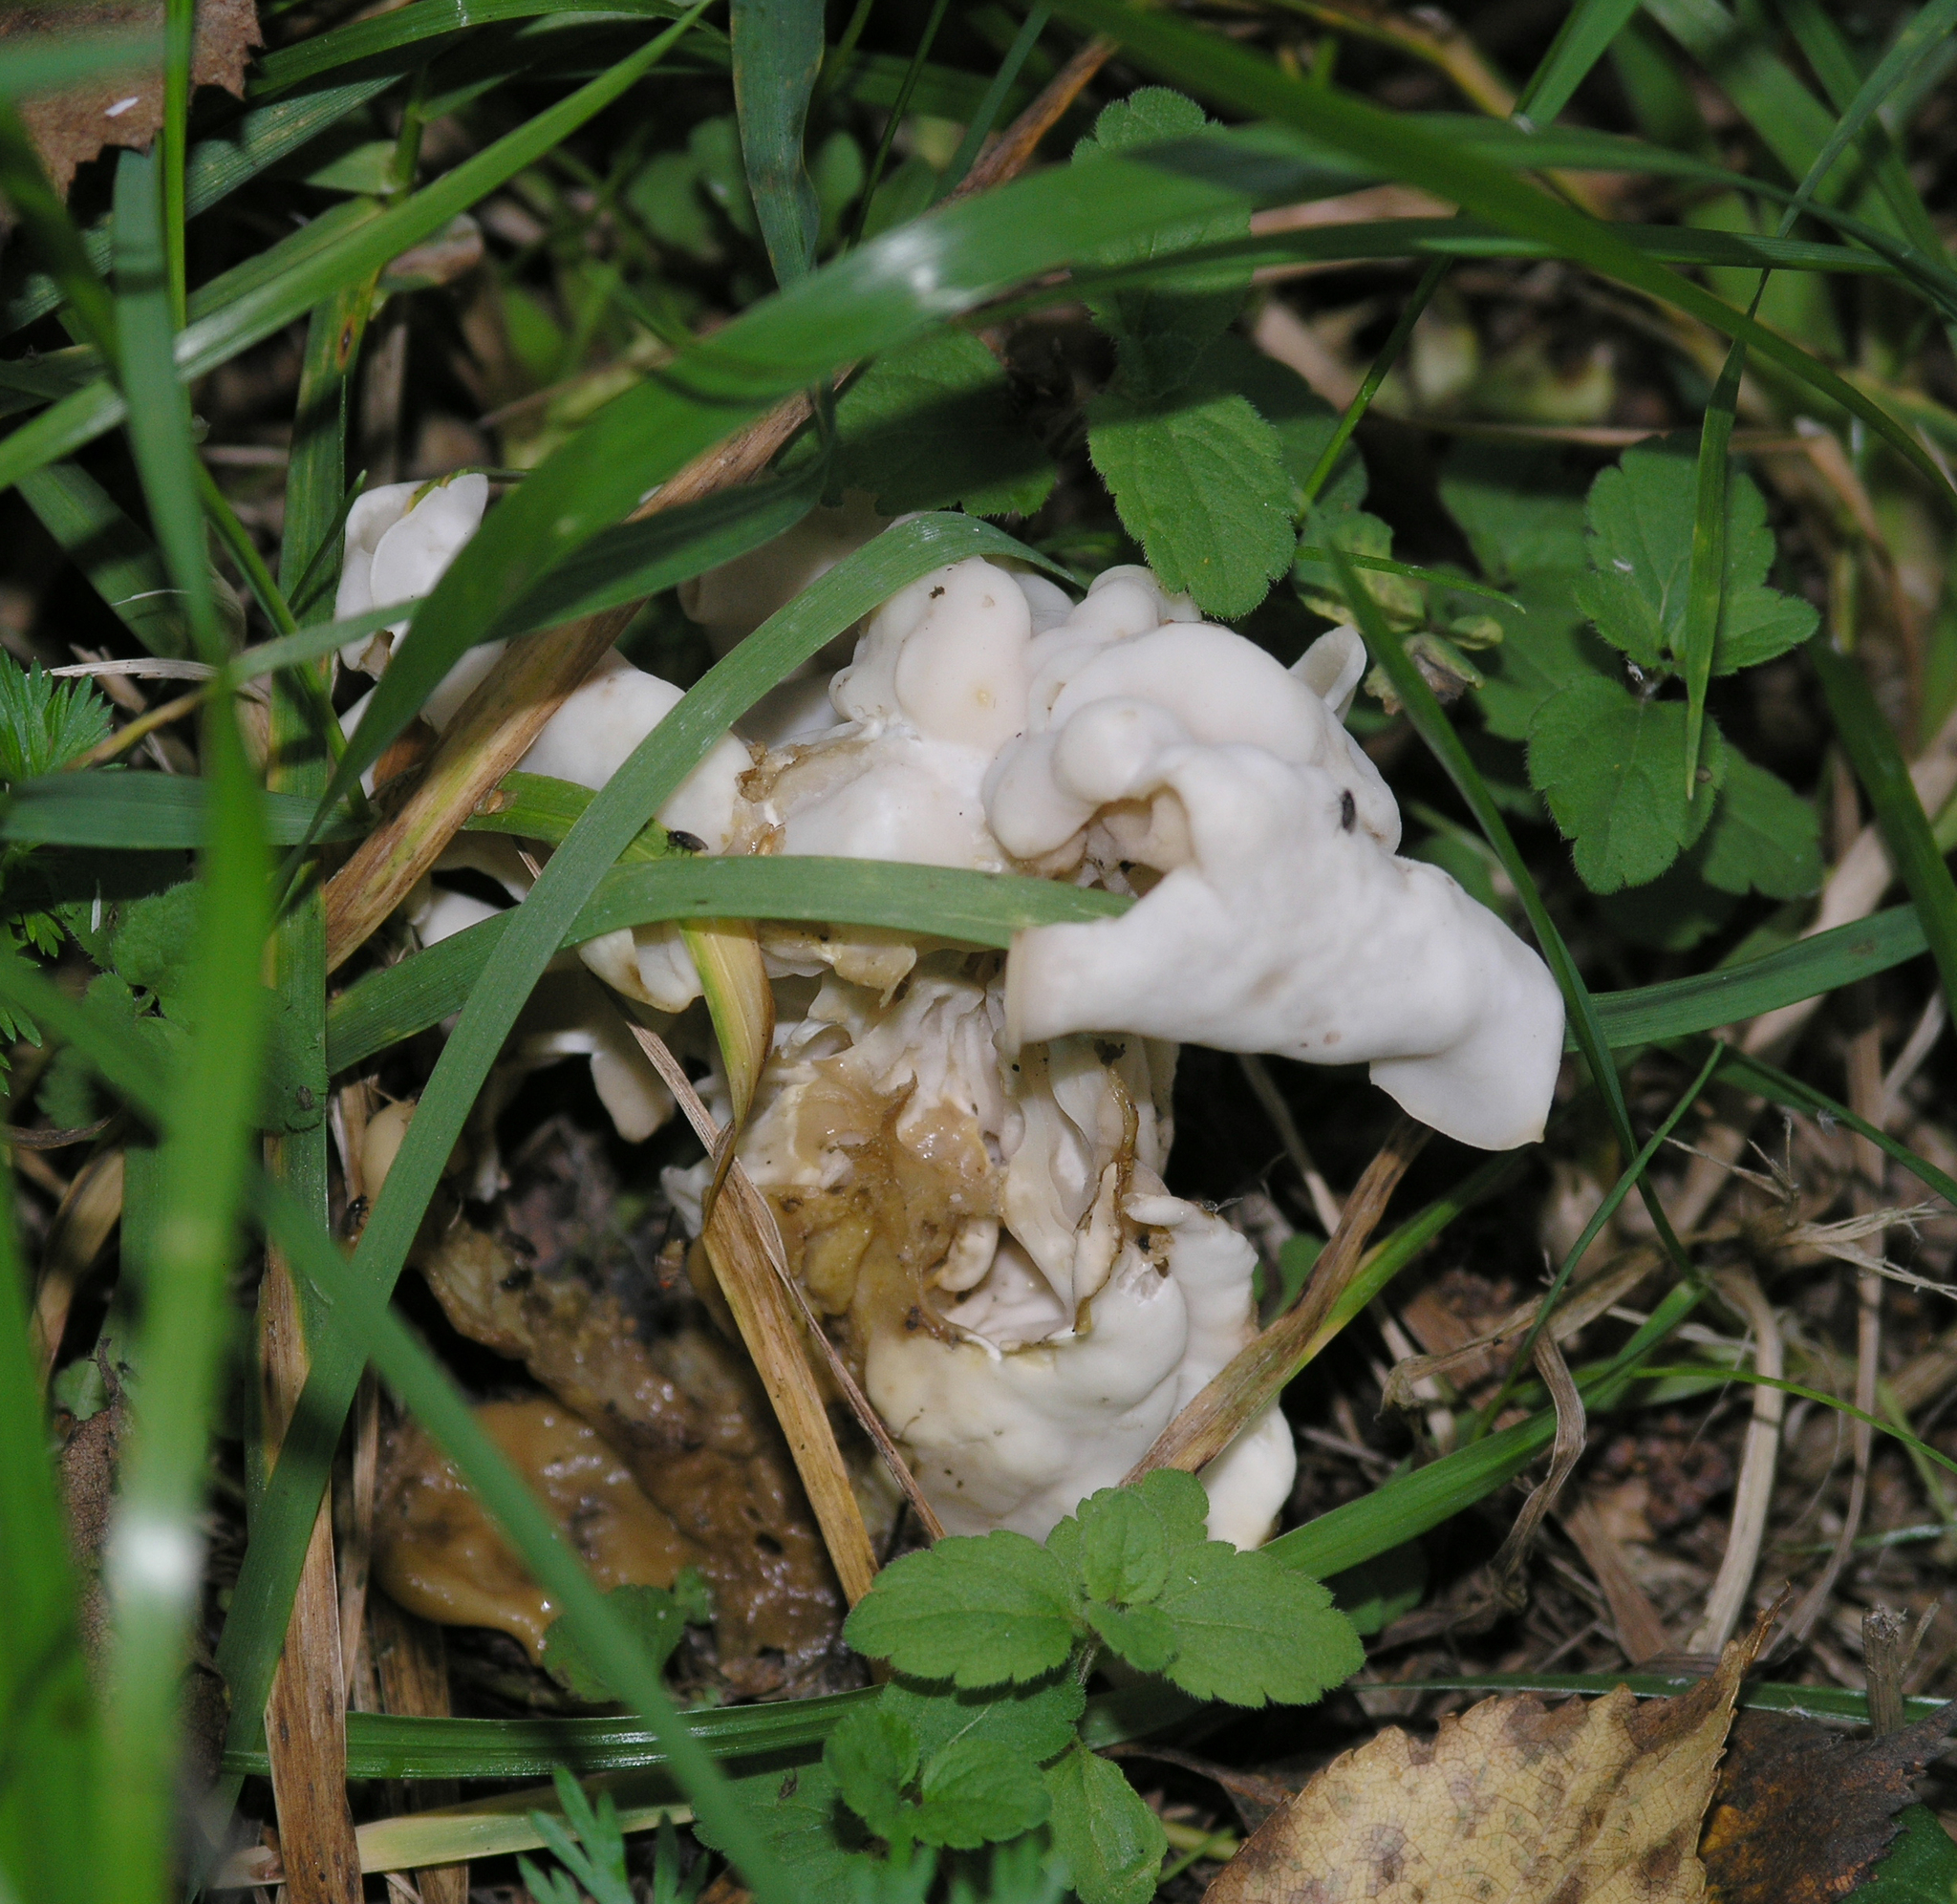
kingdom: Fungi
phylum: Ascomycota
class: Pezizomycetes
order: Pezizales
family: Helvellaceae
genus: Helvella
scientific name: Helvella crispa
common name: White saddle
